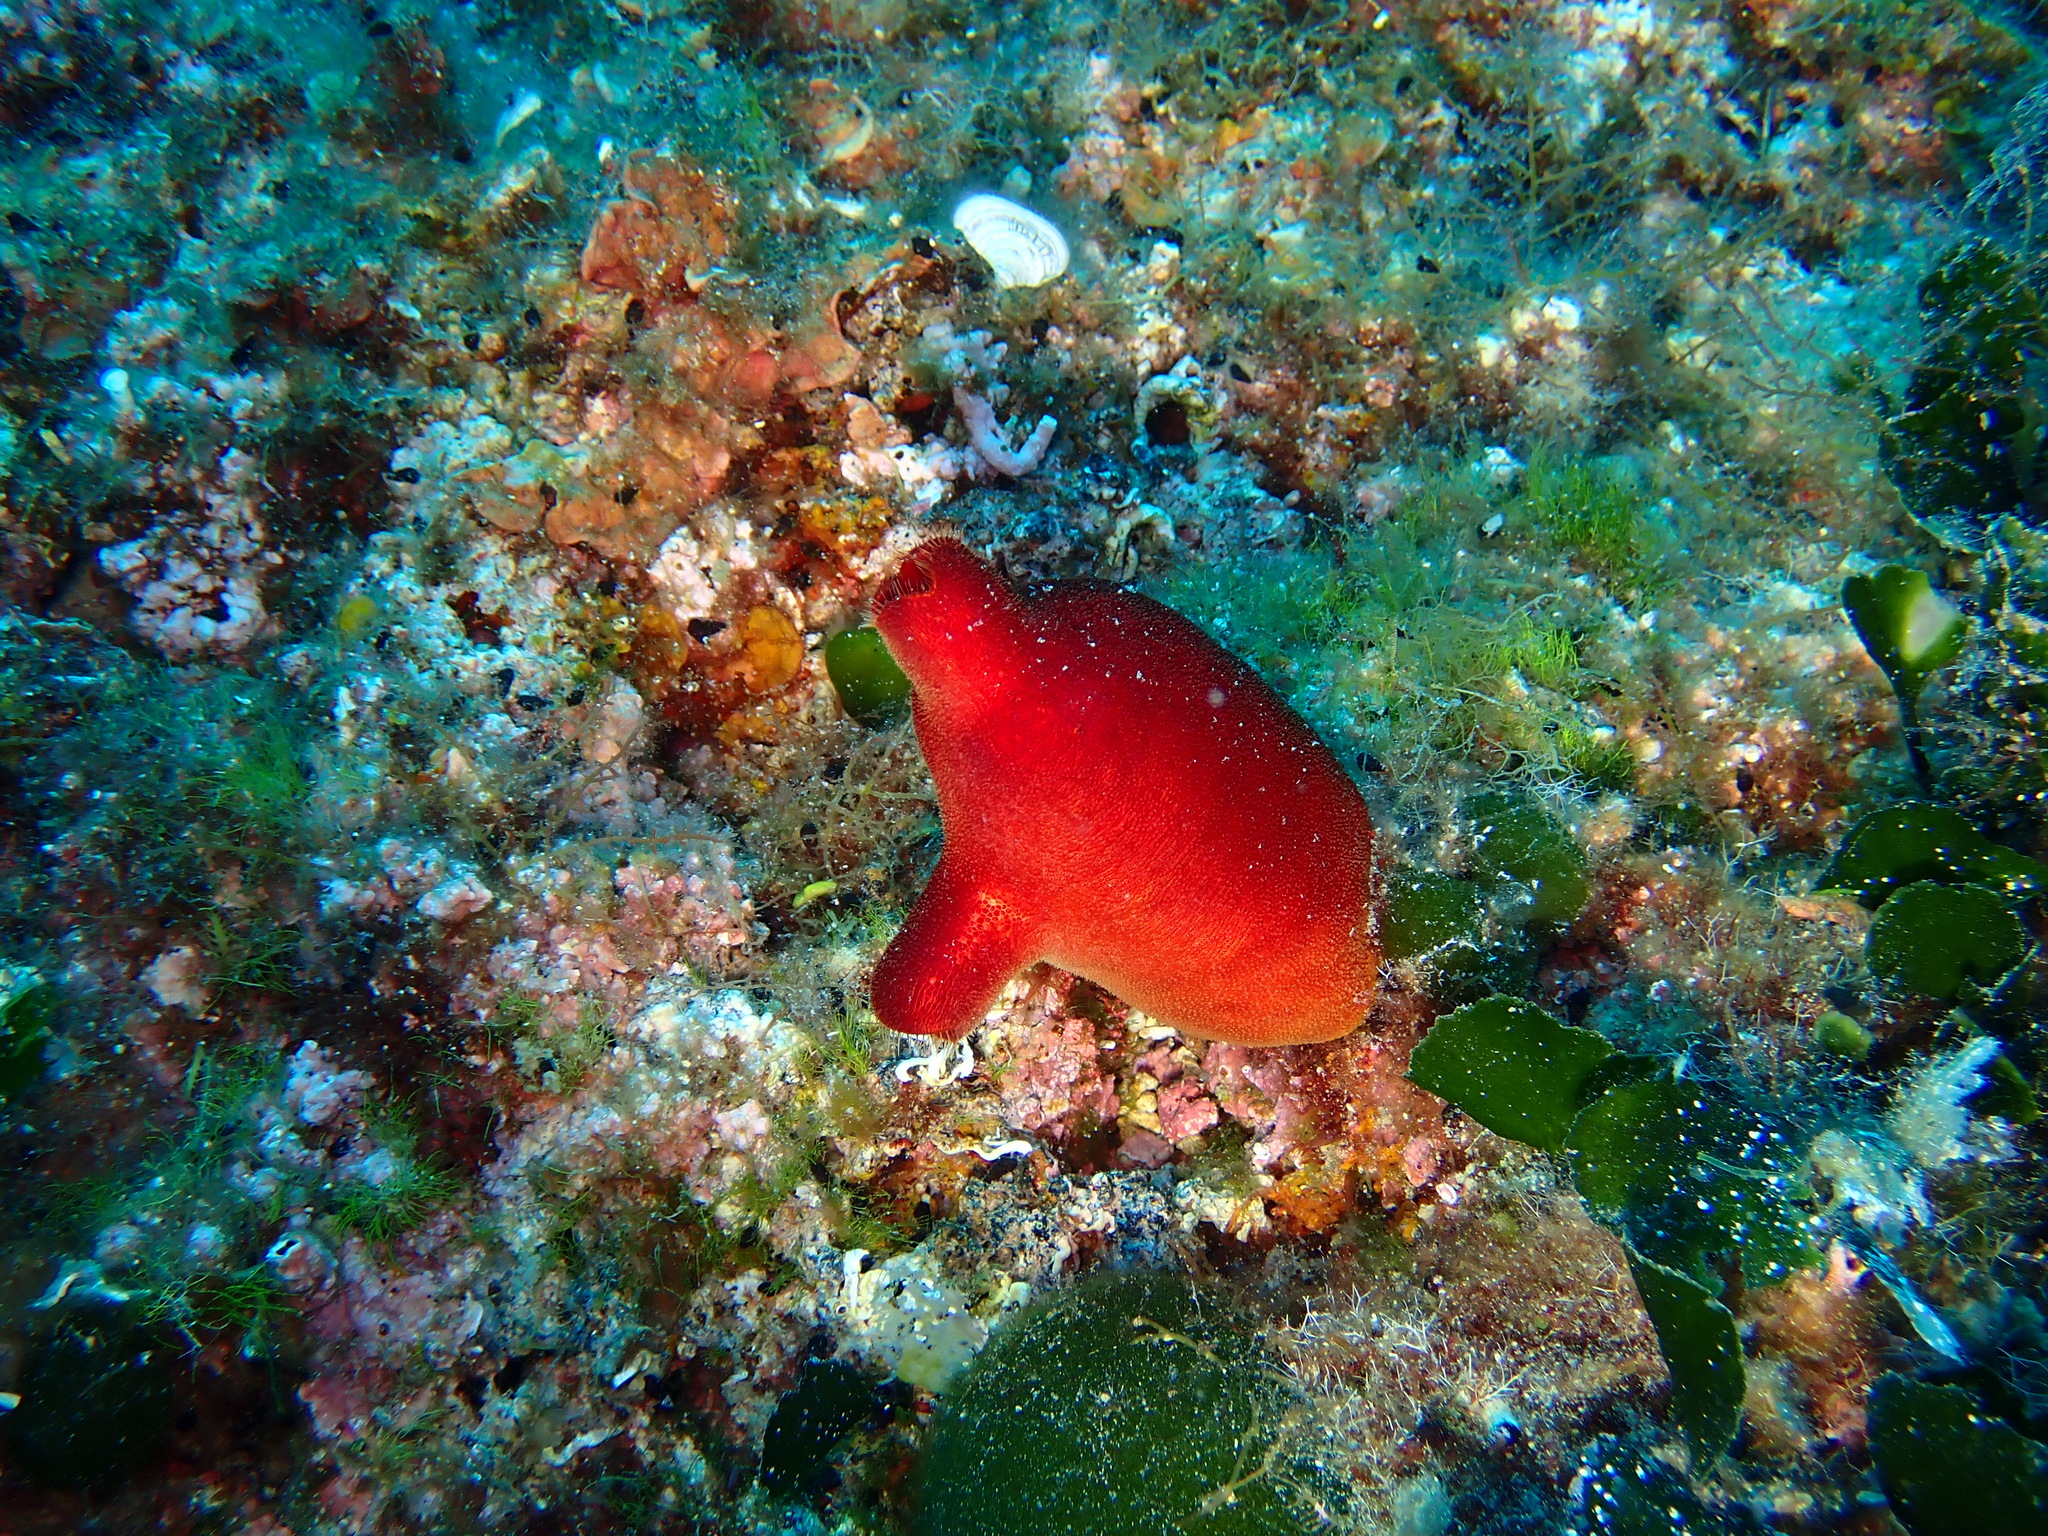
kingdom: Animalia
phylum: Chordata
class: Ascidiacea
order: Stolidobranchia
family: Pyuridae
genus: Halocynthia
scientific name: Halocynthia papillosa
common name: Red sea-squirt
